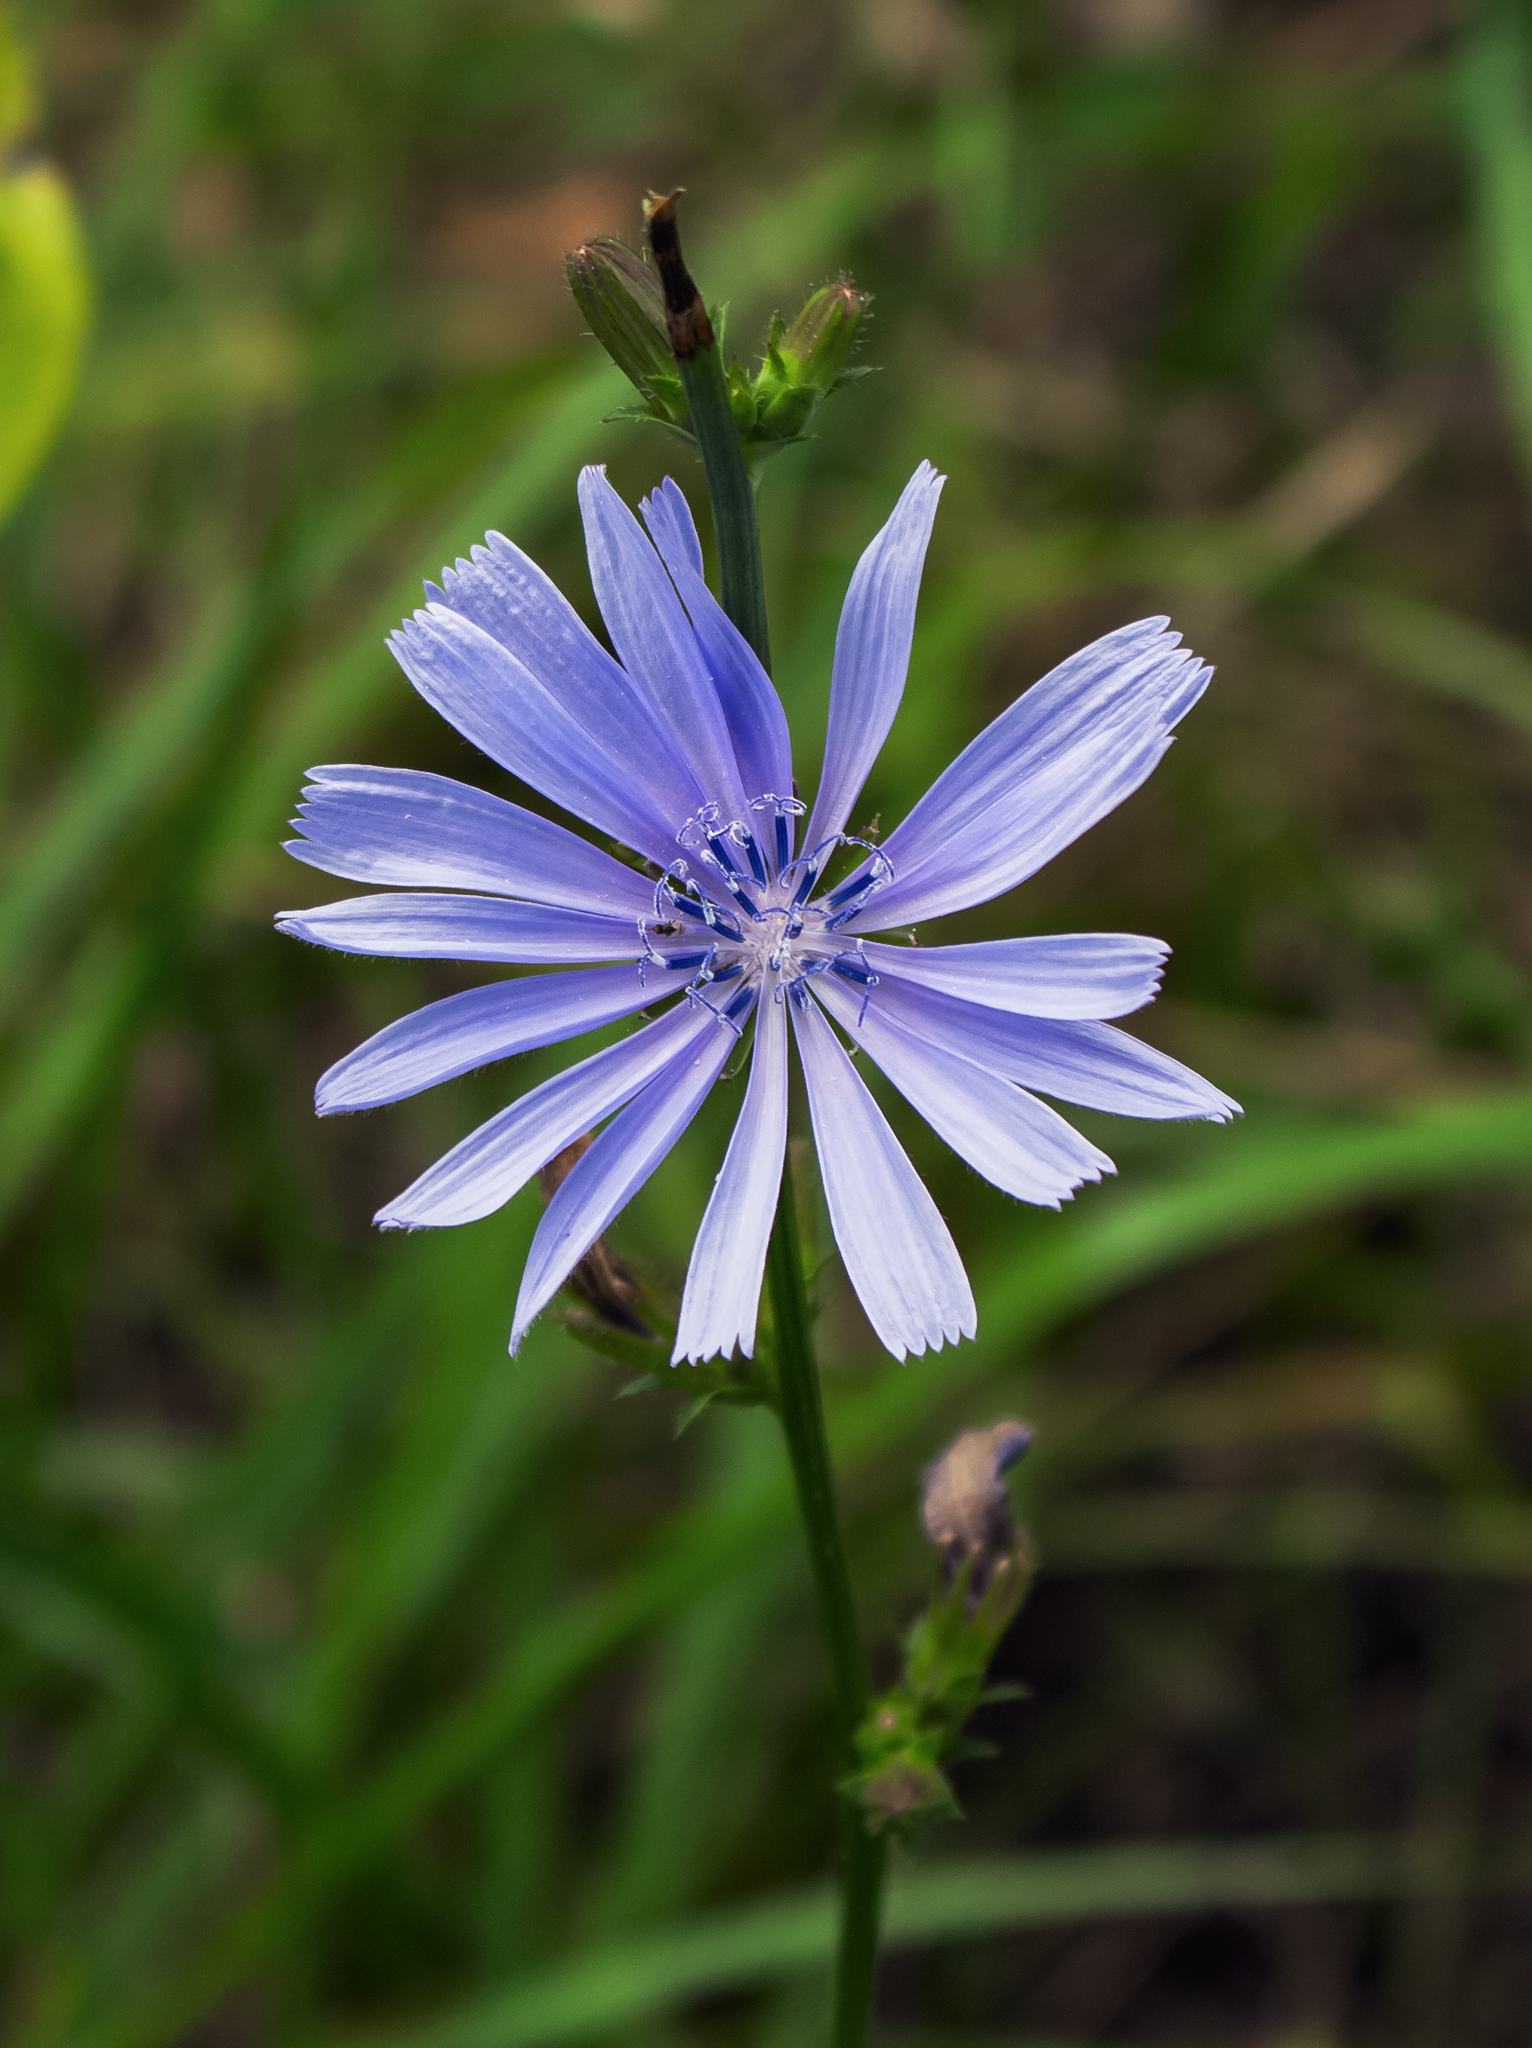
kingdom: Plantae
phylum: Tracheophyta
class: Magnoliopsida
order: Asterales
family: Asteraceae
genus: Cichorium
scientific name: Cichorium intybus
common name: Chicory
